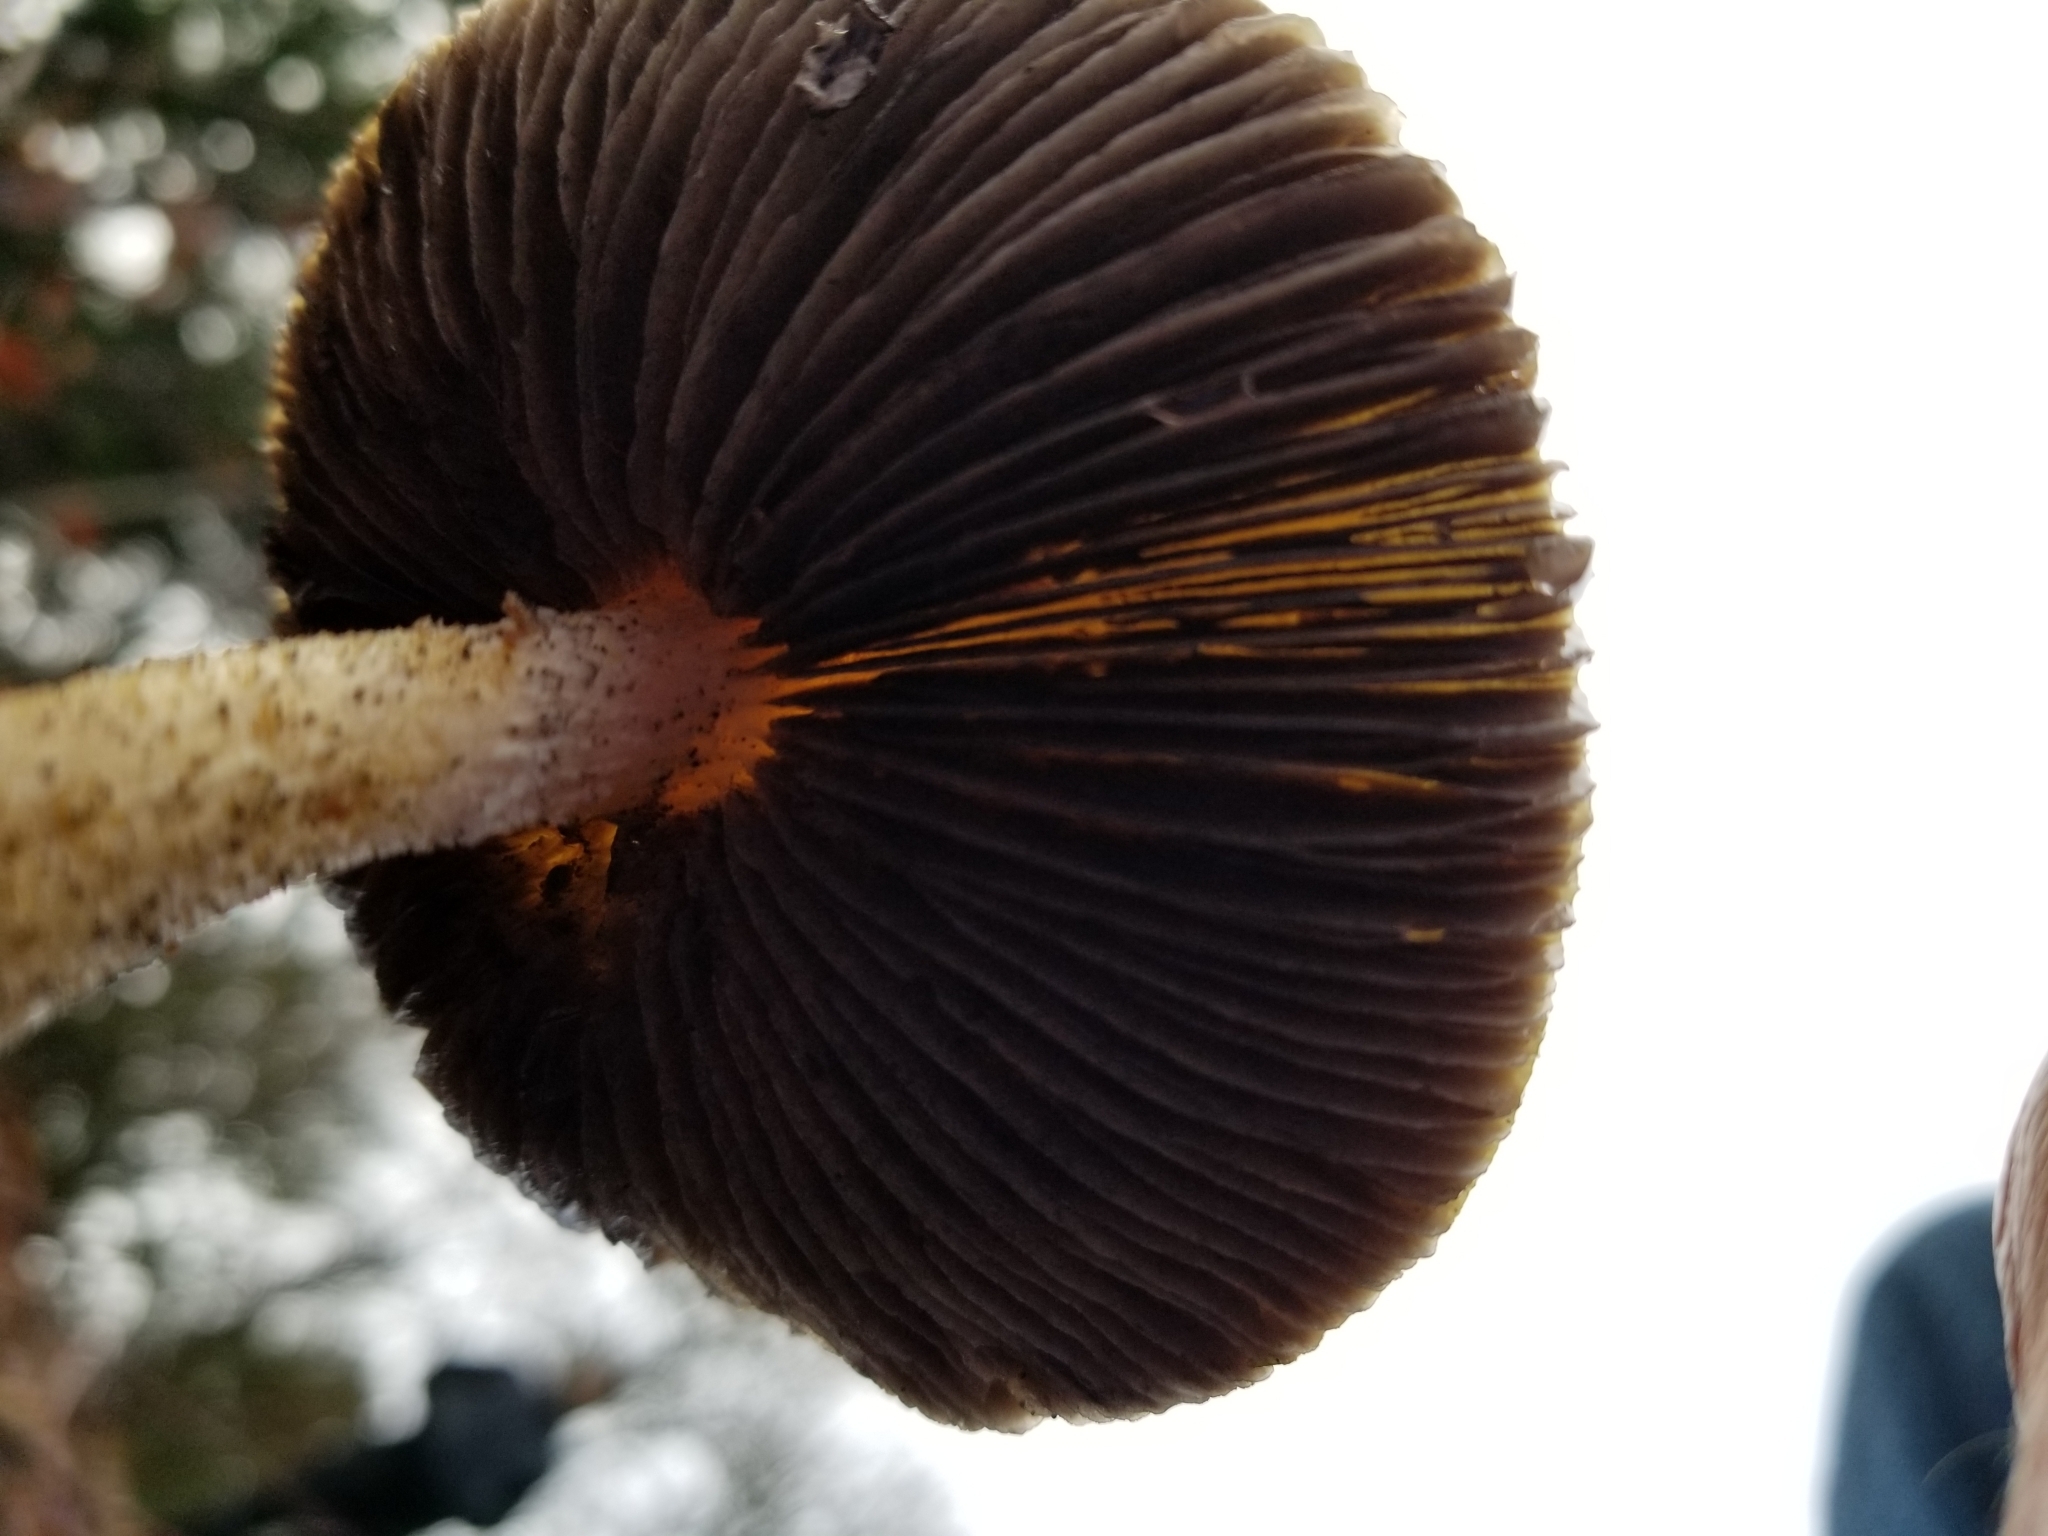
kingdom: Fungi
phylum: Basidiomycota
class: Agaricomycetes
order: Agaricales
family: Strophariaceae
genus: Stropharia
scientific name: Stropharia ambigua
